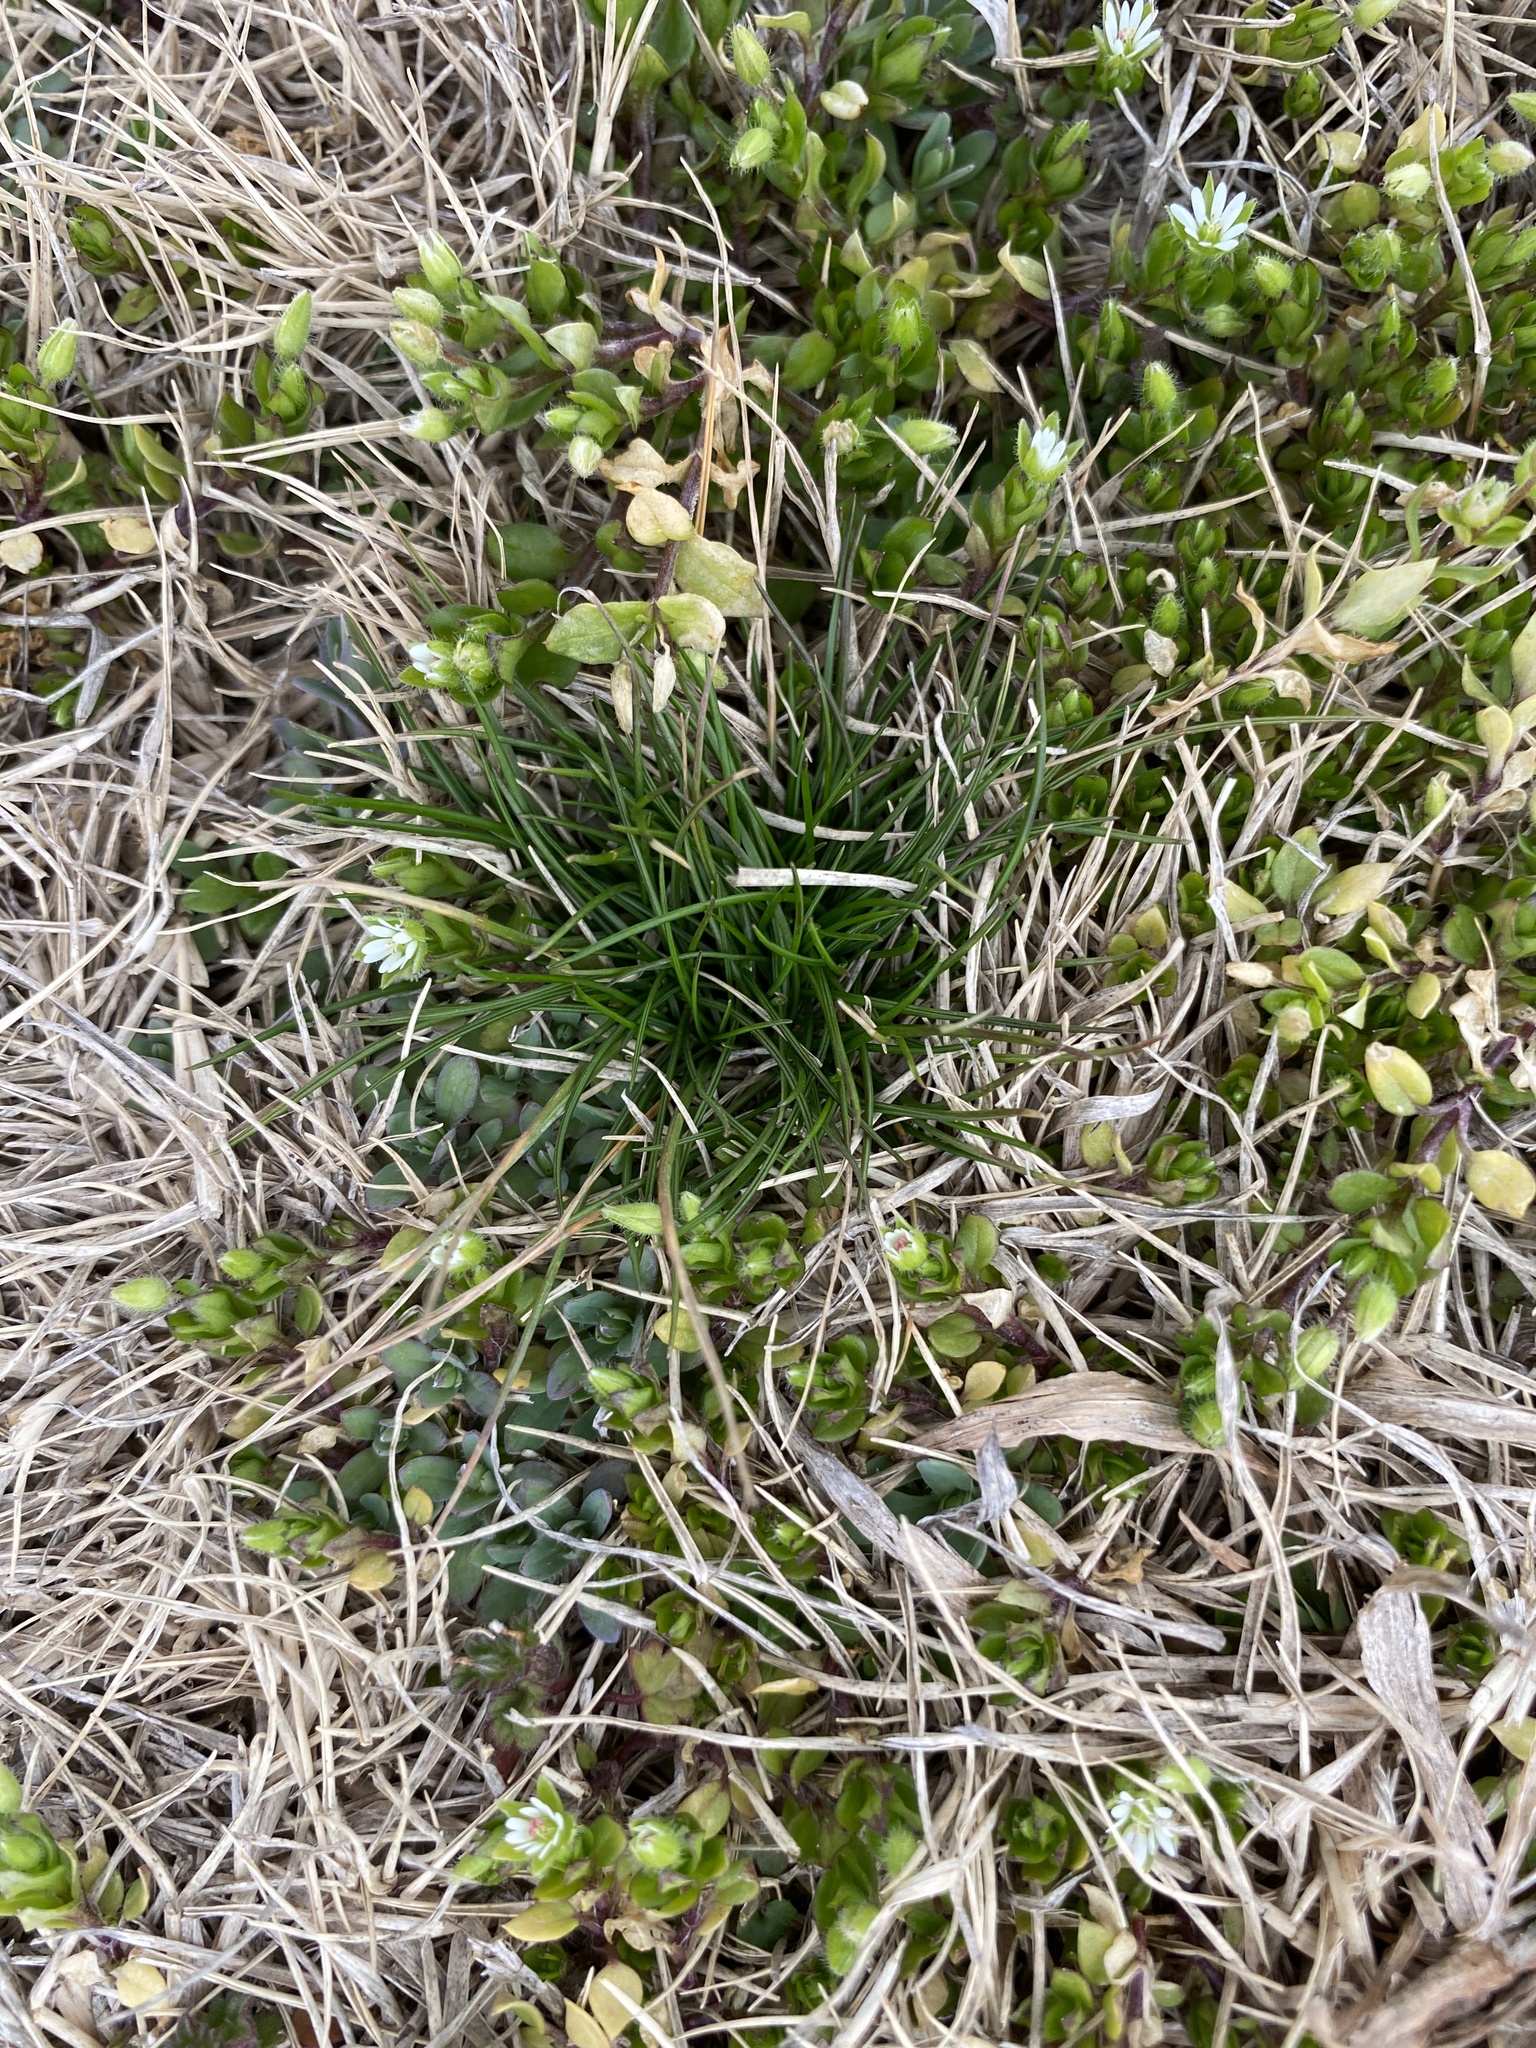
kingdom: Plantae
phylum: Tracheophyta
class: Magnoliopsida
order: Caryophyllales
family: Caryophyllaceae
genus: Stellaria
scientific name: Stellaria media
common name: Common chickweed
